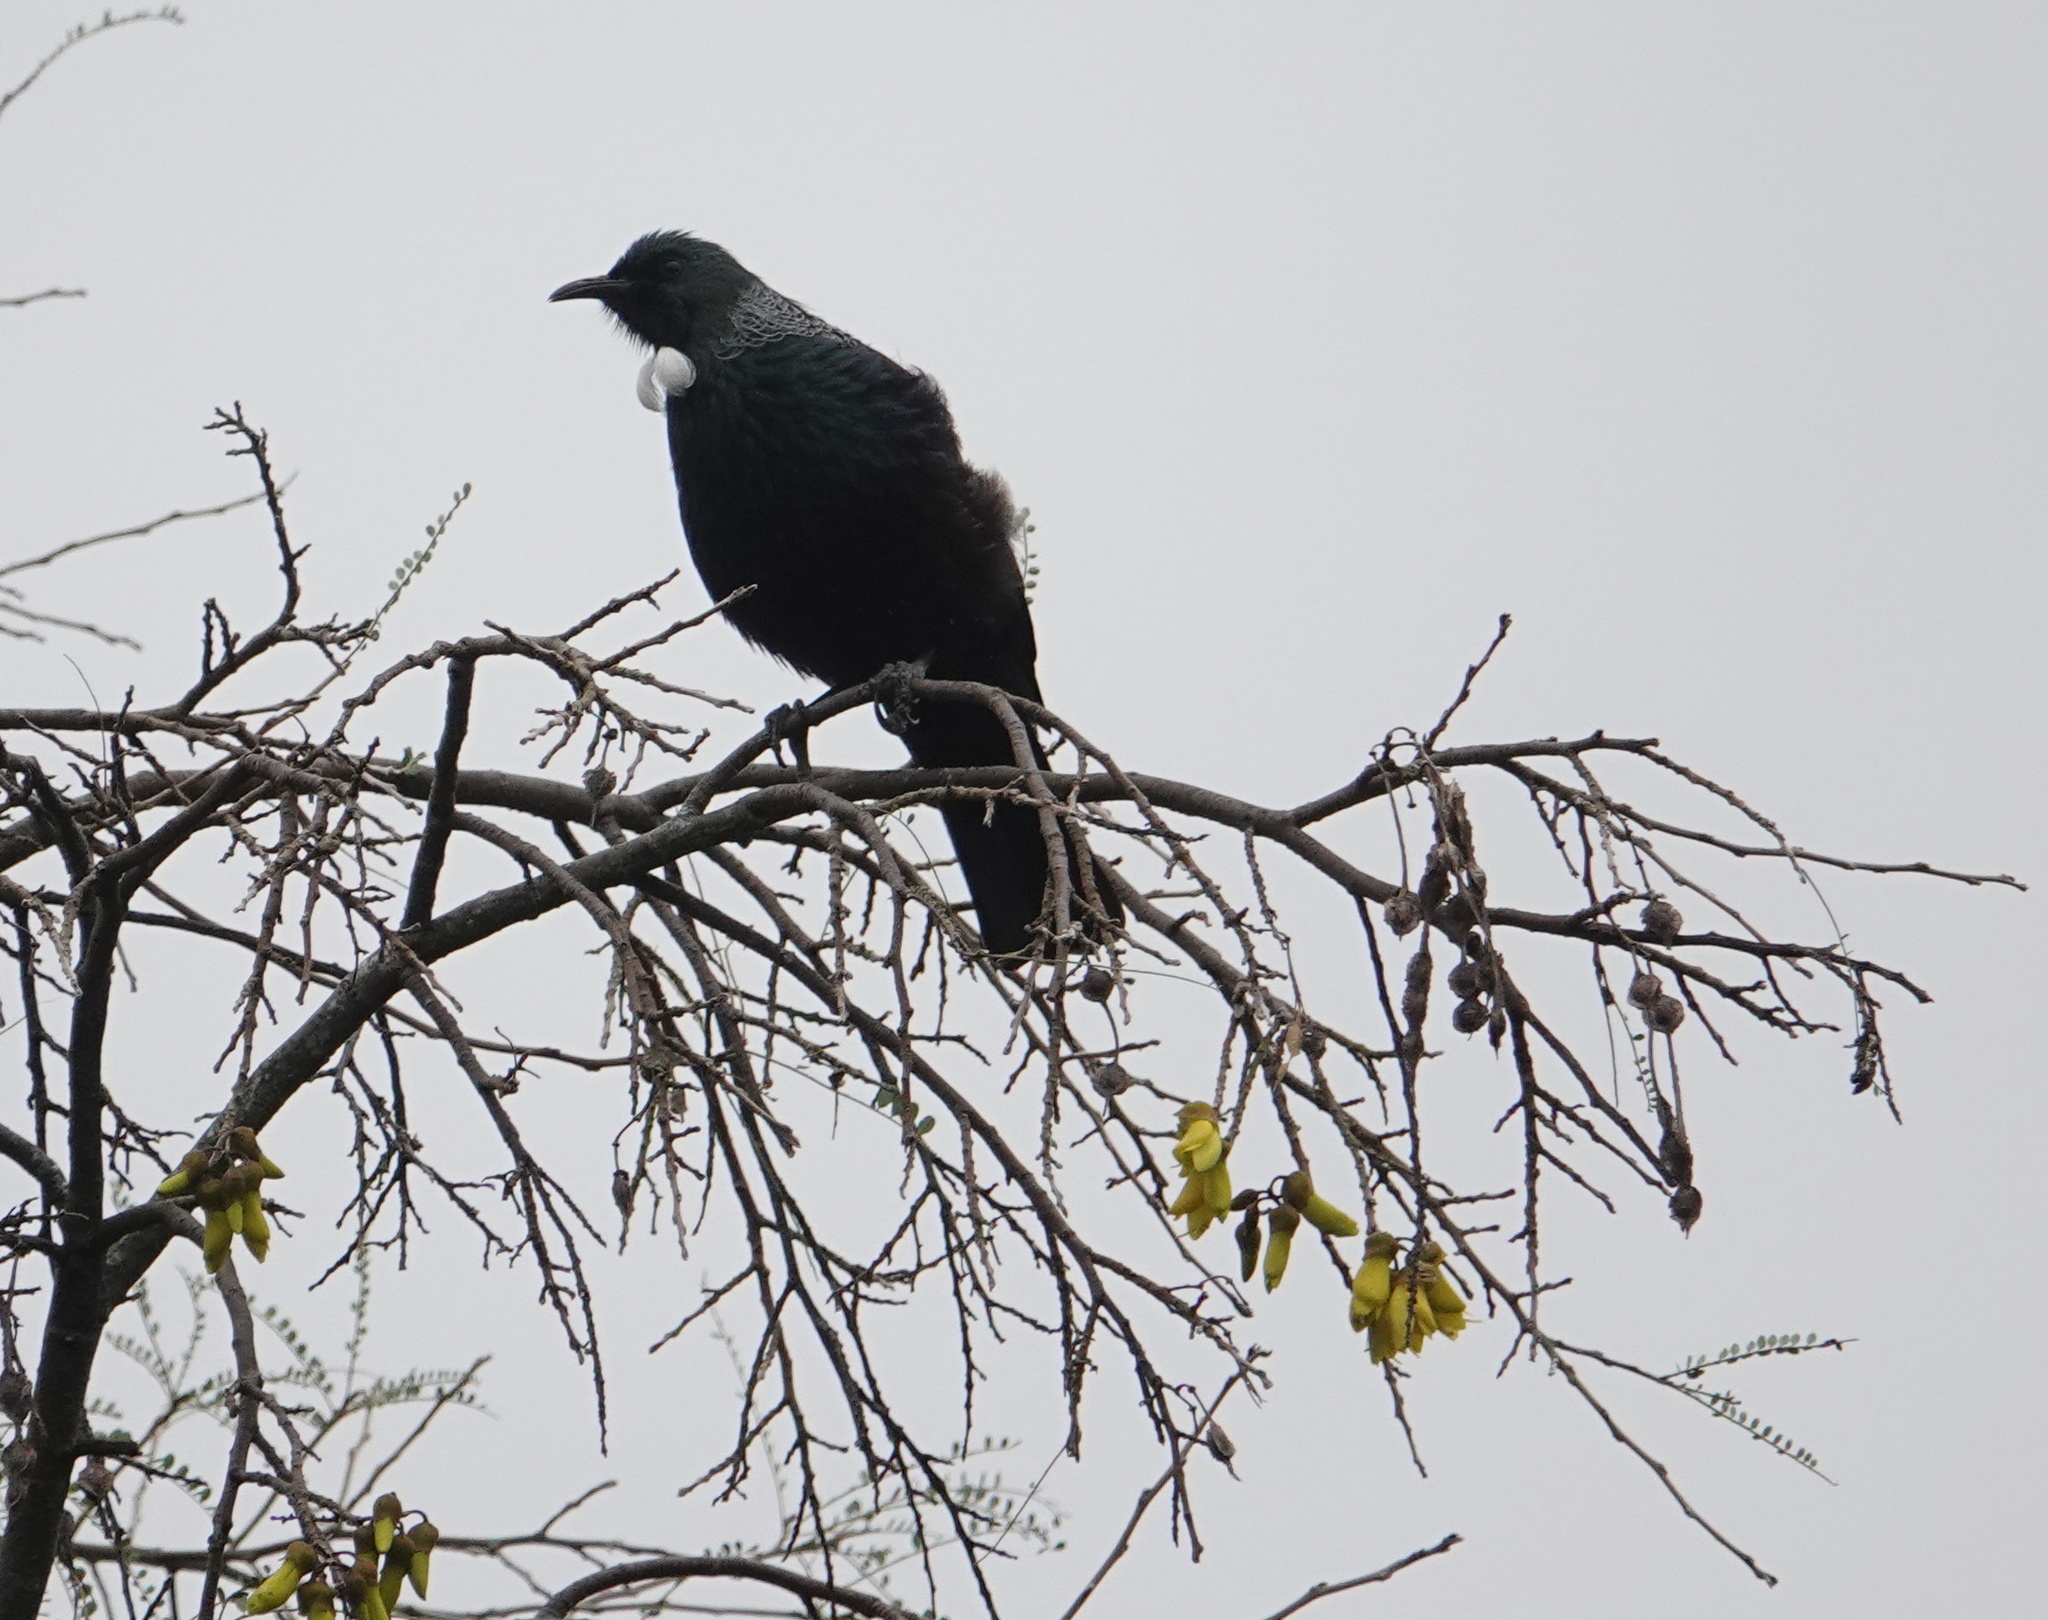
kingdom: Animalia
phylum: Chordata
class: Aves
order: Passeriformes
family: Meliphagidae
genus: Prosthemadera
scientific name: Prosthemadera novaeseelandiae
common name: Tui
